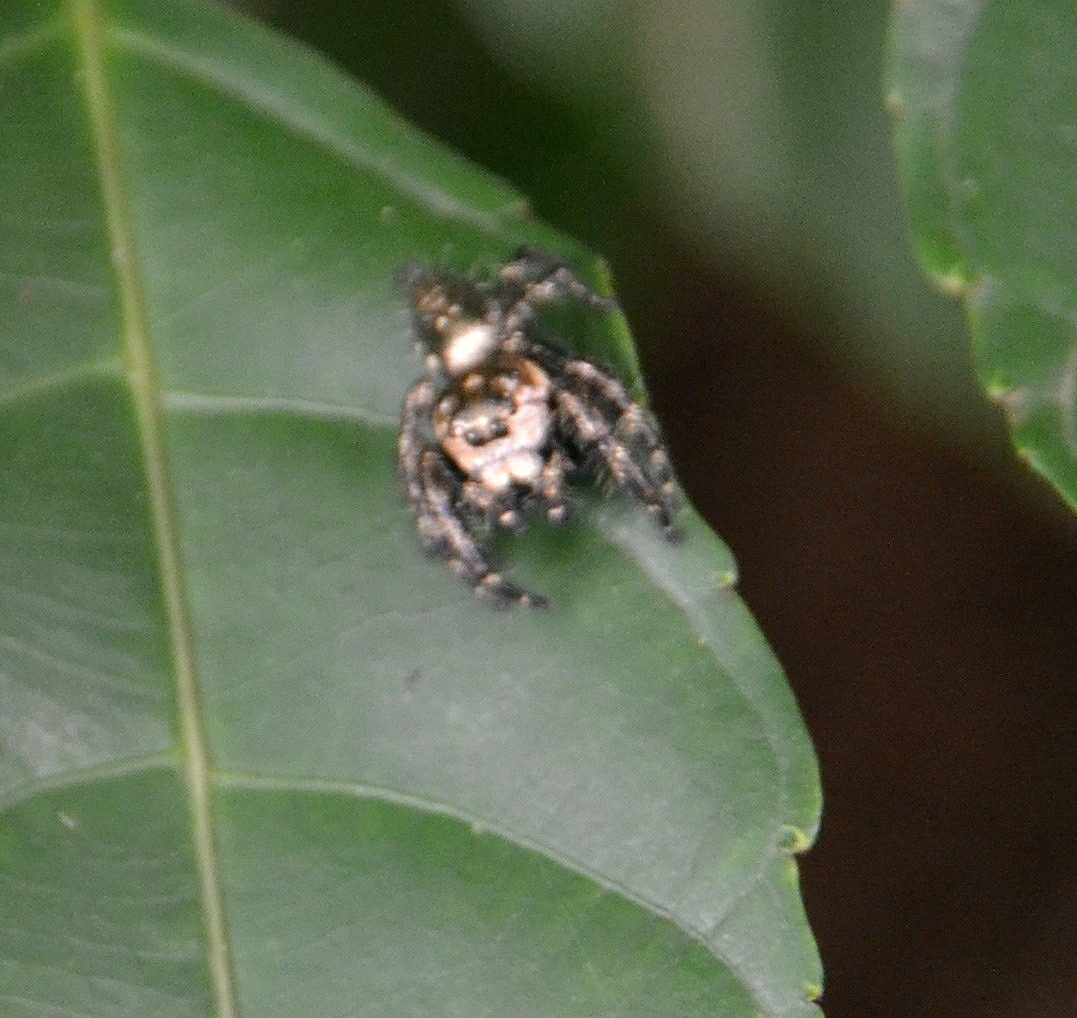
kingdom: Animalia
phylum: Arthropoda
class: Arachnida
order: Araneae
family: Salticidae
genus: Hyllus
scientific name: Hyllus semicupreus
